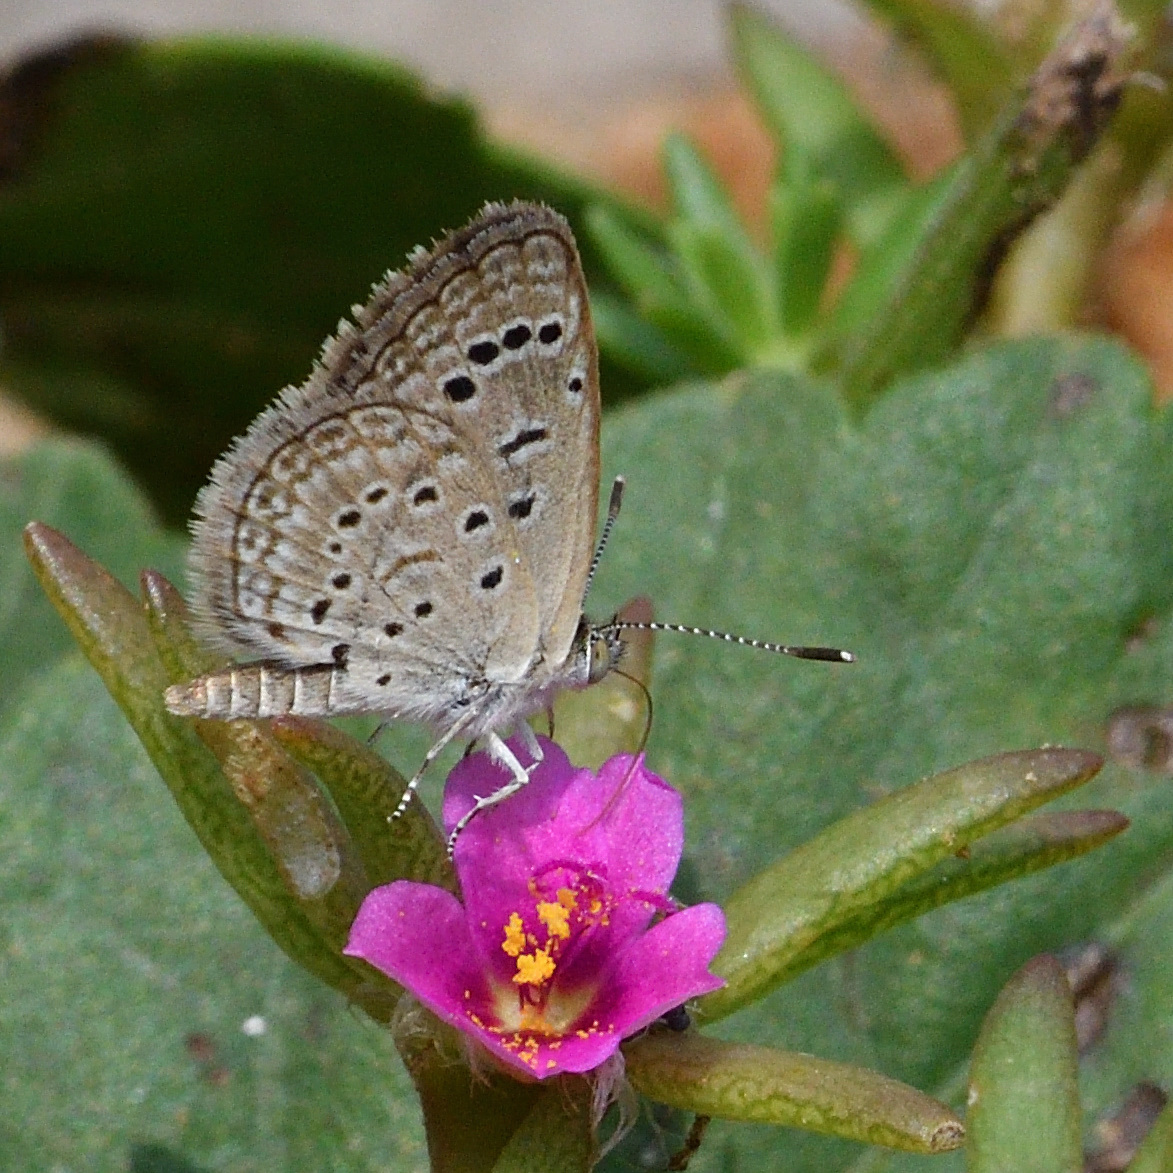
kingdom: Animalia
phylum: Arthropoda
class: Insecta
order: Lepidoptera
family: Lycaenidae
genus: Zizeeria
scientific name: Zizeeria karsandra
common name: Dark grass blue
